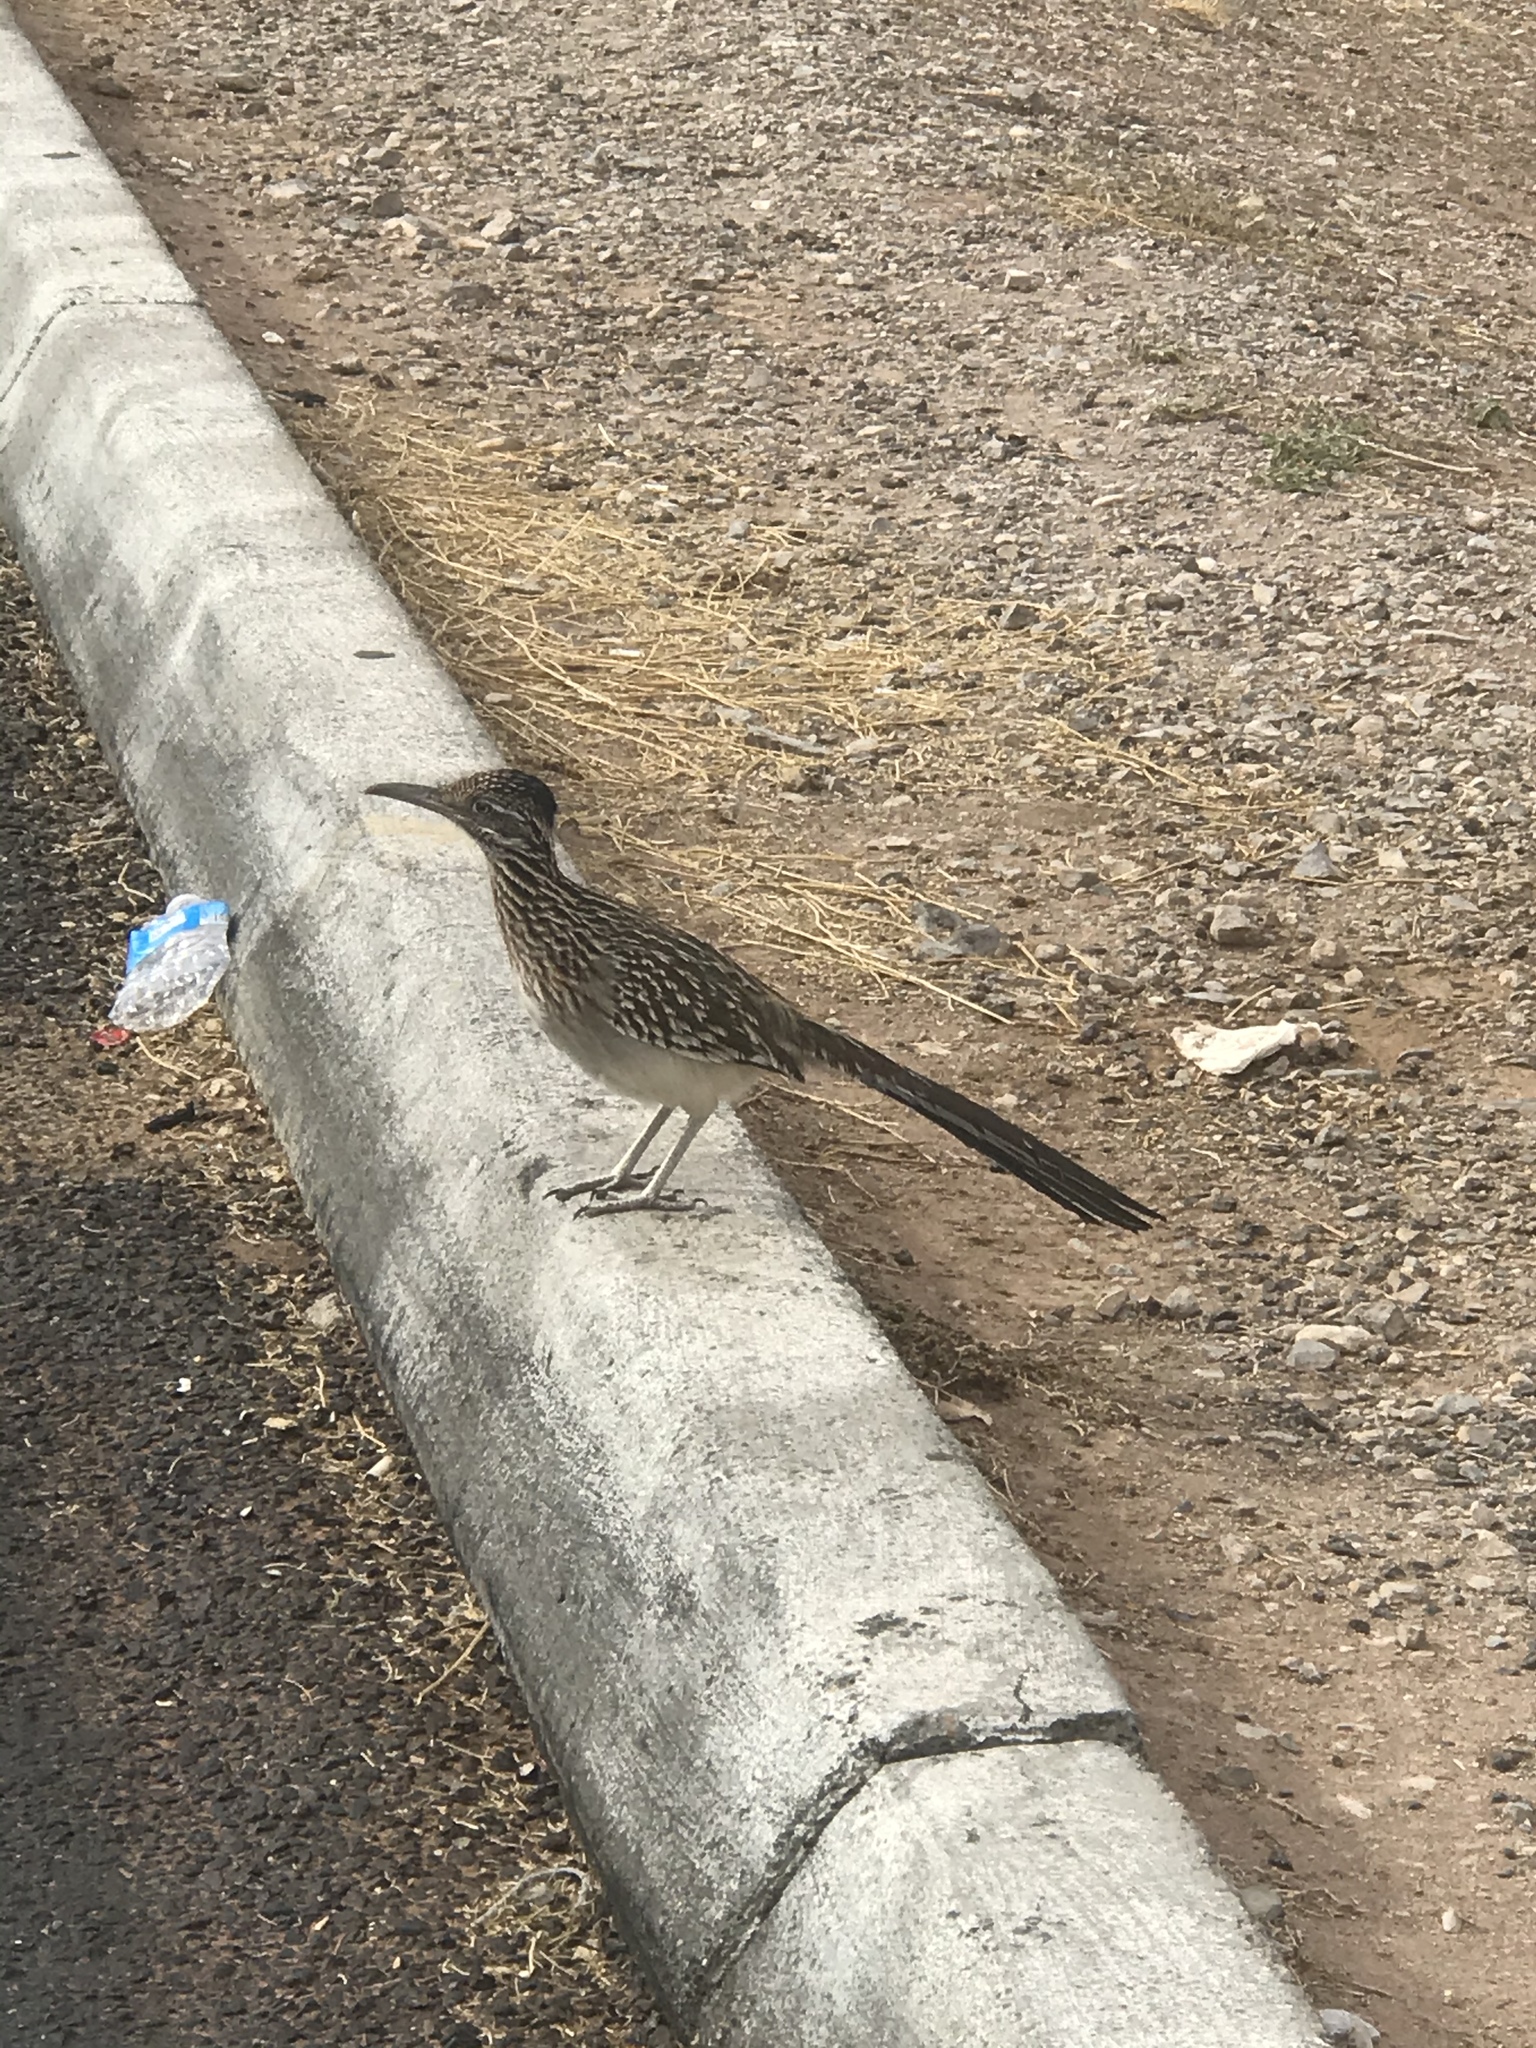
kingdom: Animalia
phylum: Chordata
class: Aves
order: Cuculiformes
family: Cuculidae
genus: Geococcyx
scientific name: Geococcyx californianus
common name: Greater roadrunner
